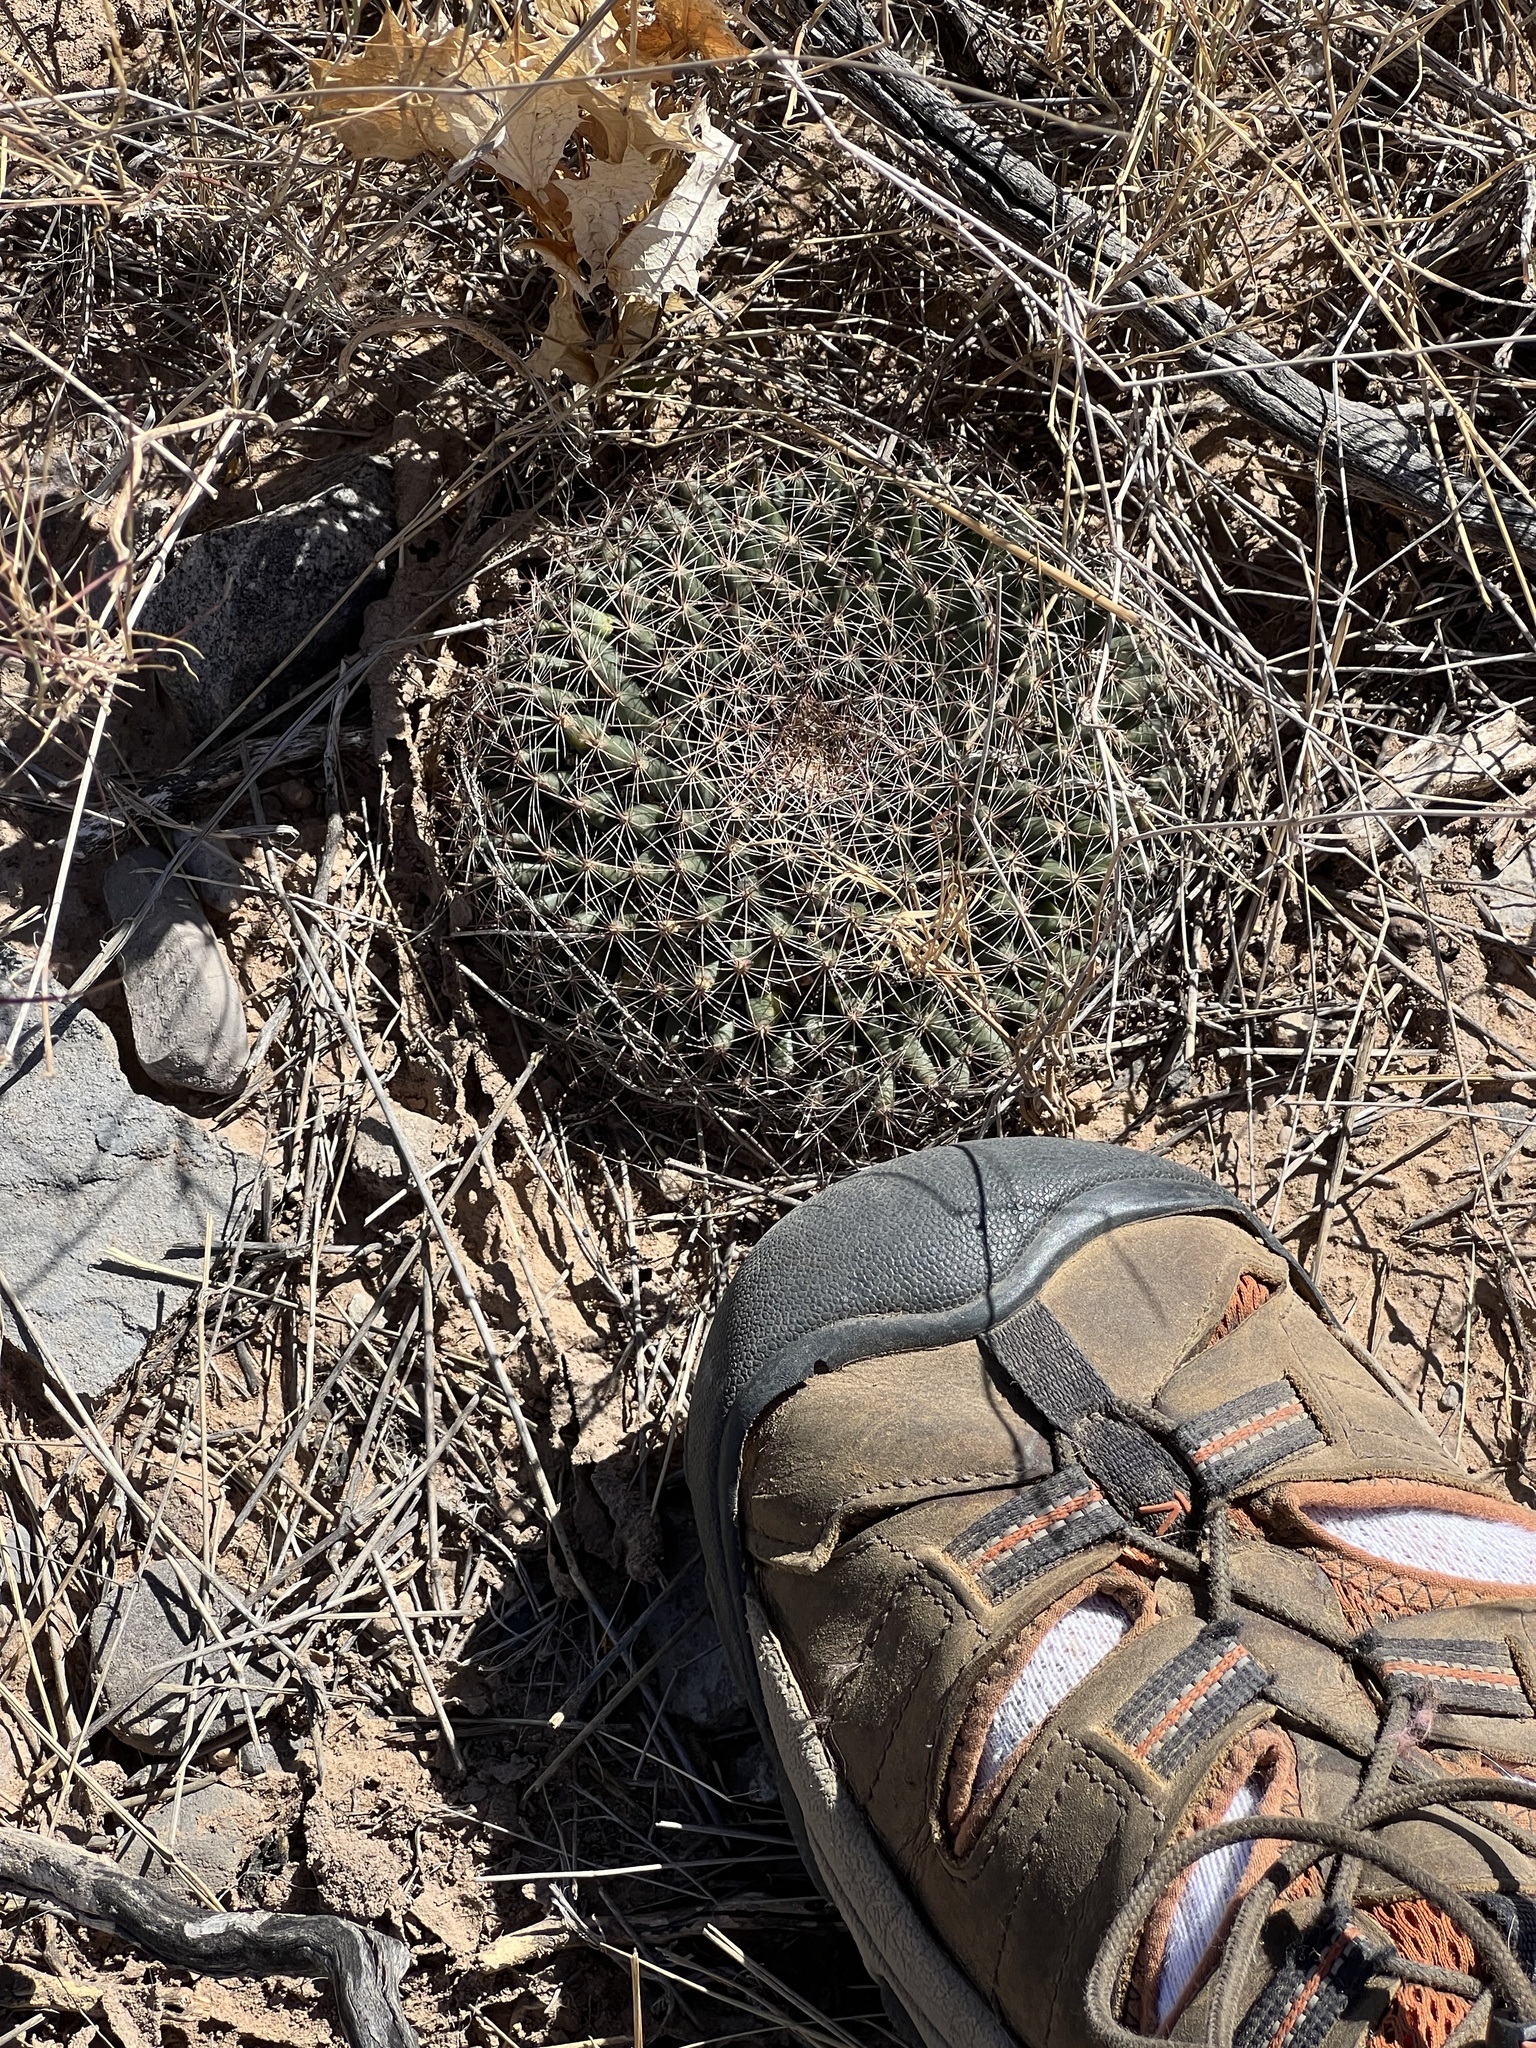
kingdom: Plantae
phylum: Tracheophyta
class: Magnoliopsida
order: Caryophyllales
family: Cactaceae
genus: Mammillaria
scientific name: Mammillaria heyderi
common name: Little nipple cactus
